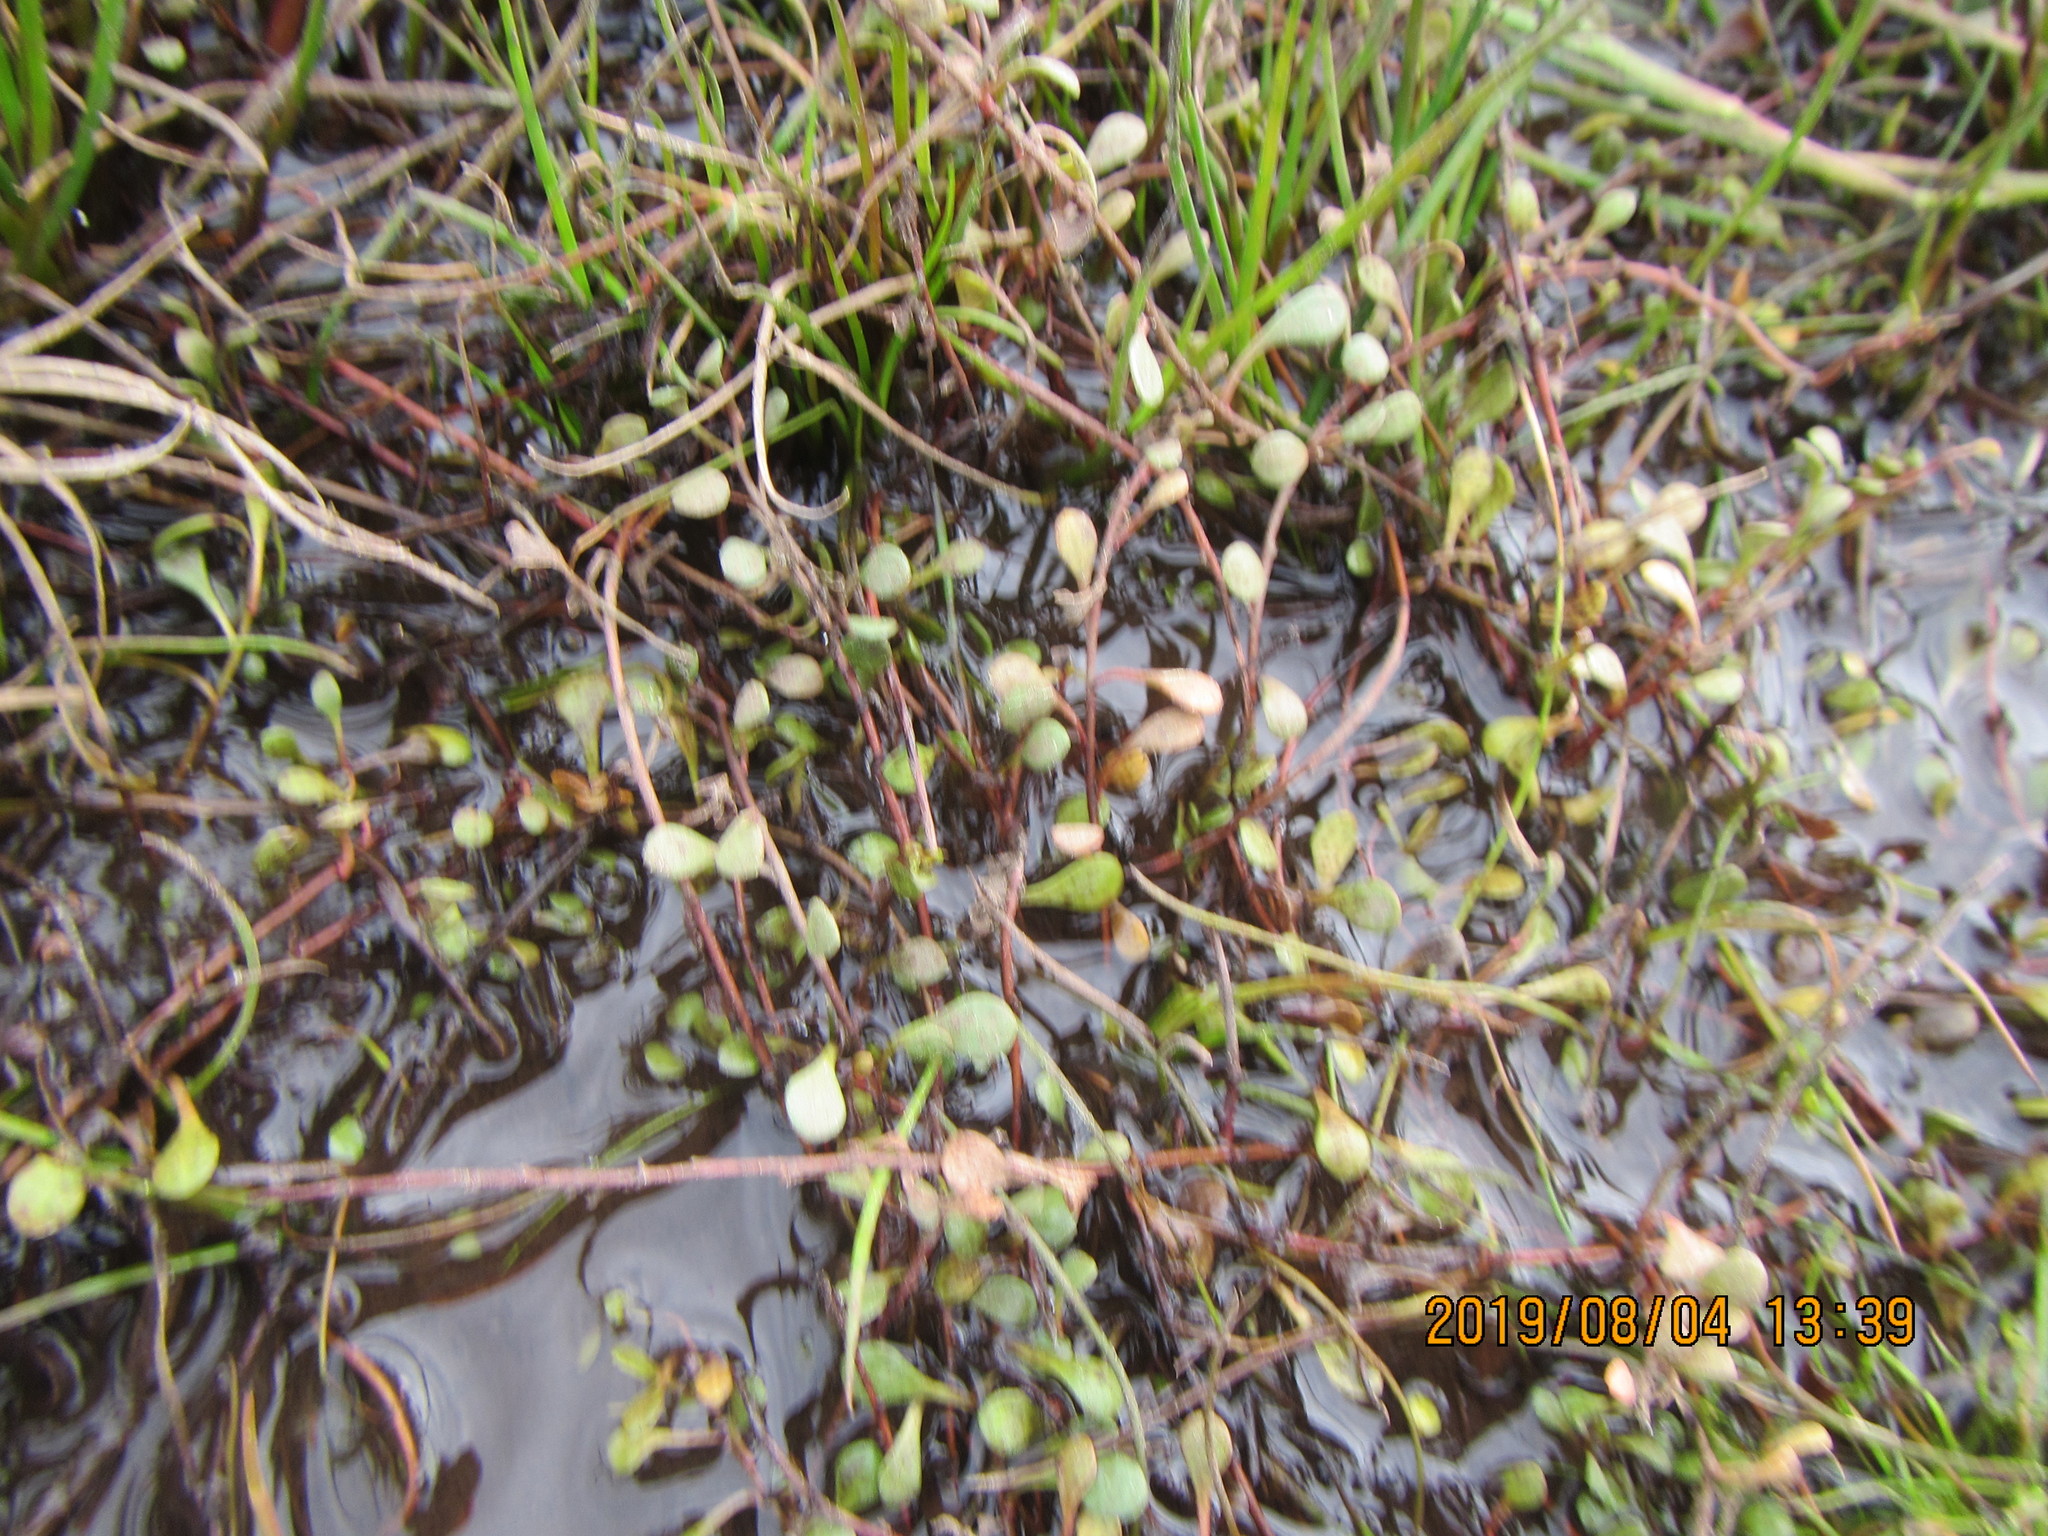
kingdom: Plantae
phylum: Tracheophyta
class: Magnoliopsida
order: Ericales
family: Primulaceae
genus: Samolus
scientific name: Samolus repens
